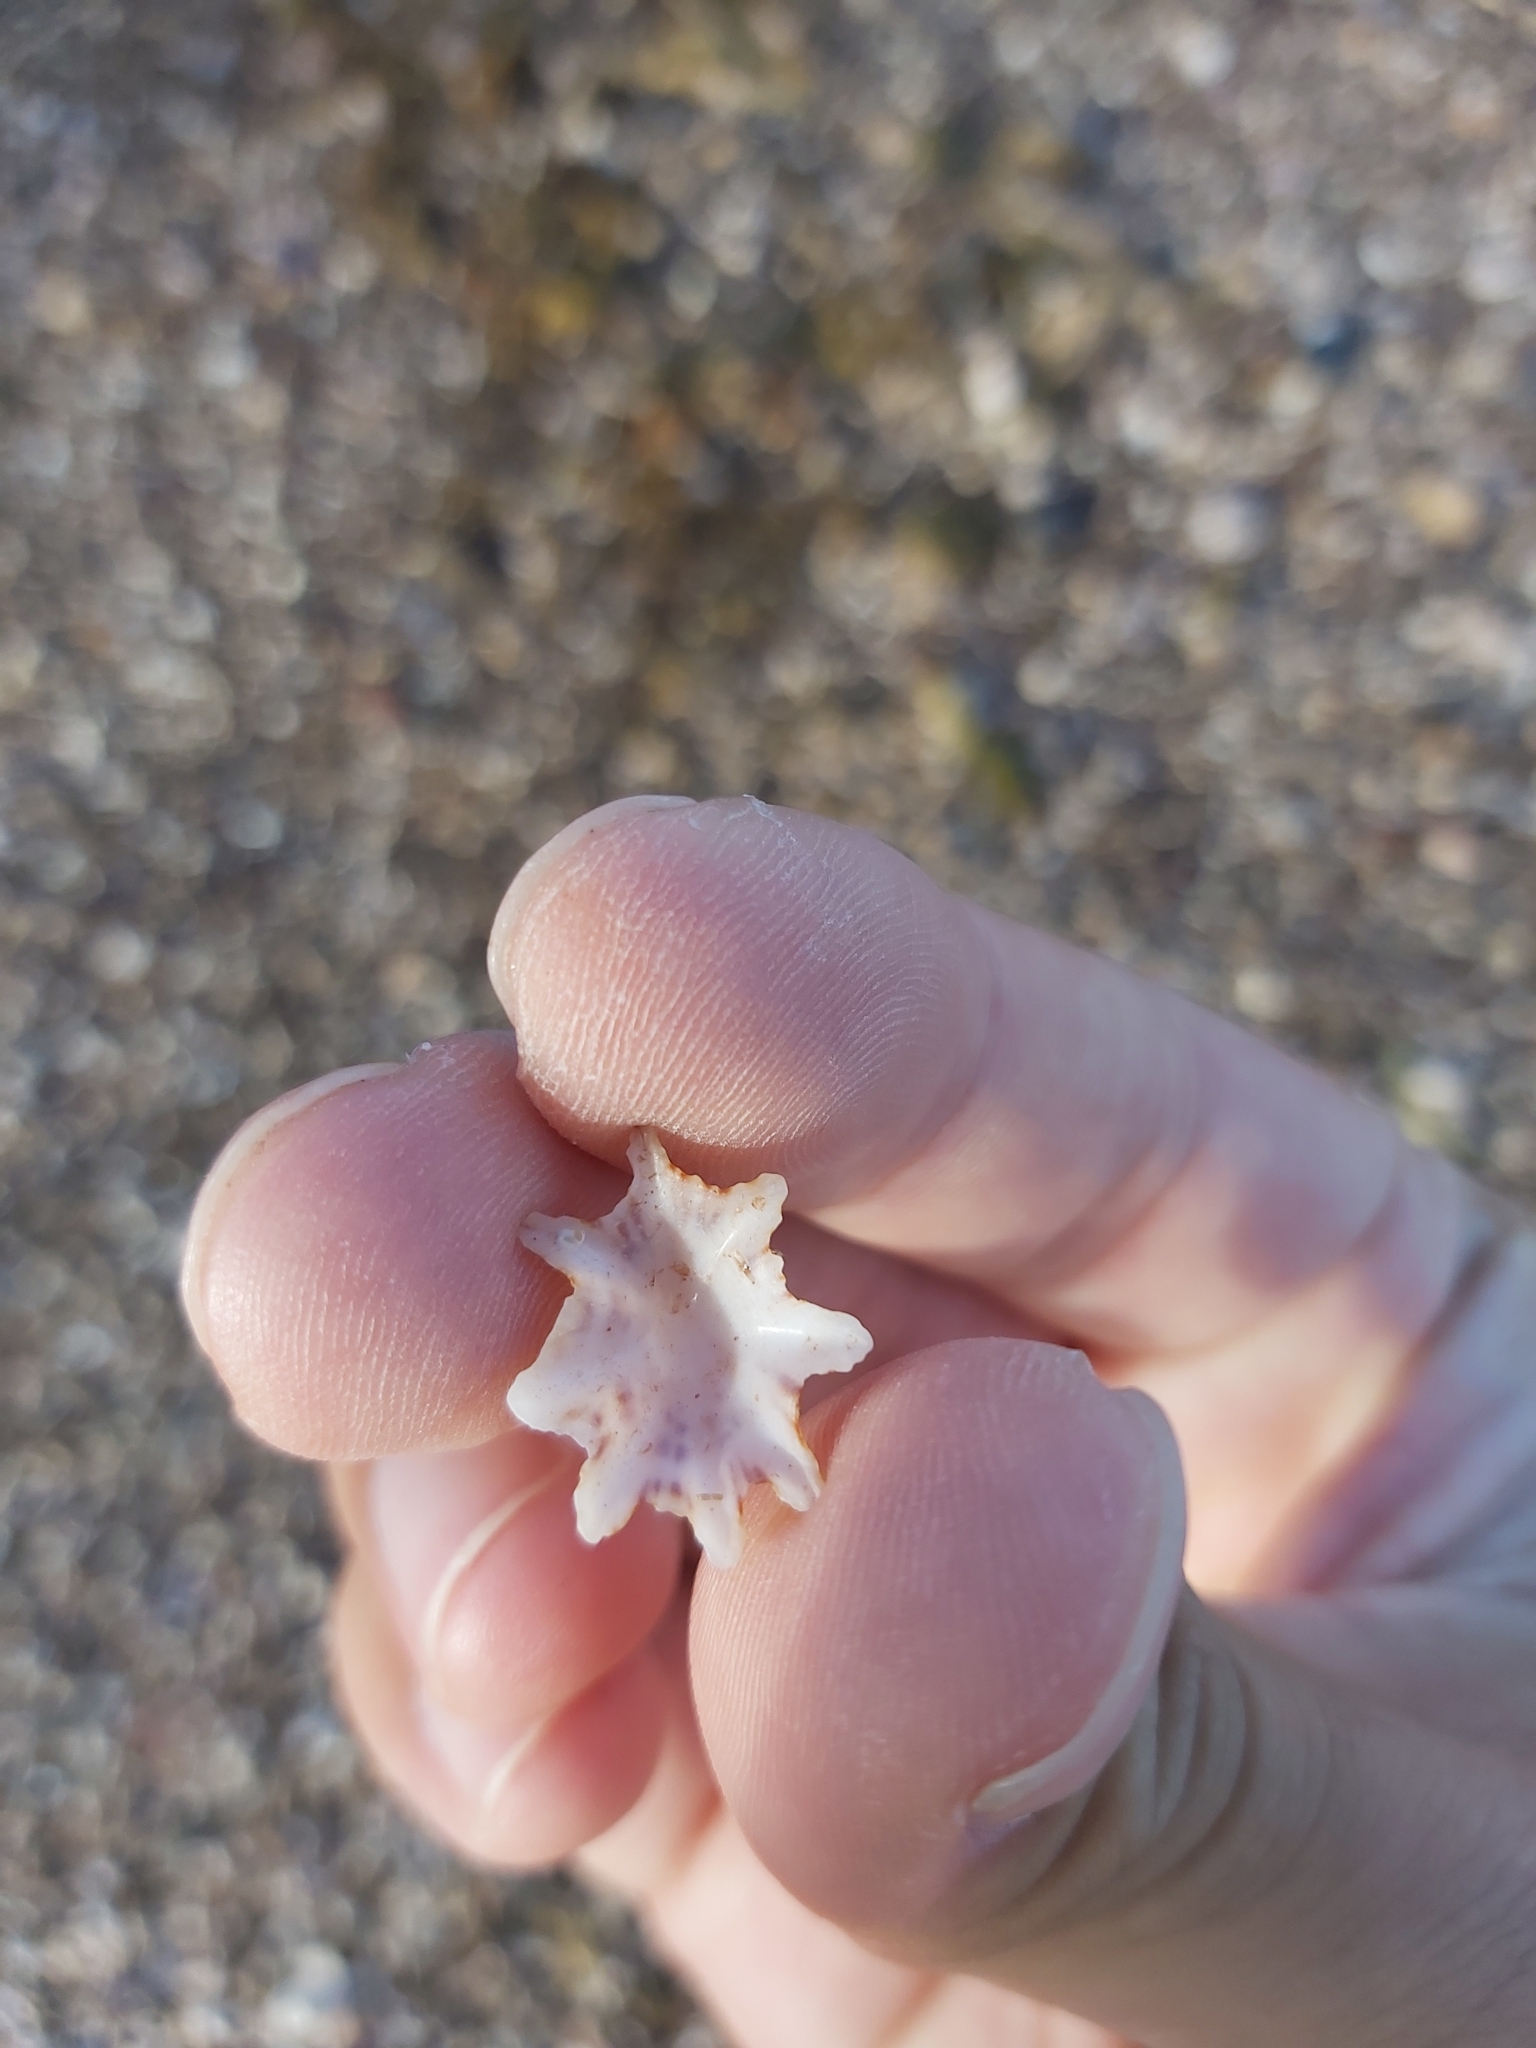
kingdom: Animalia
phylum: Mollusca
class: Gastropoda
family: Patellidae
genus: Scutellastra
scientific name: Scutellastra chapmani
